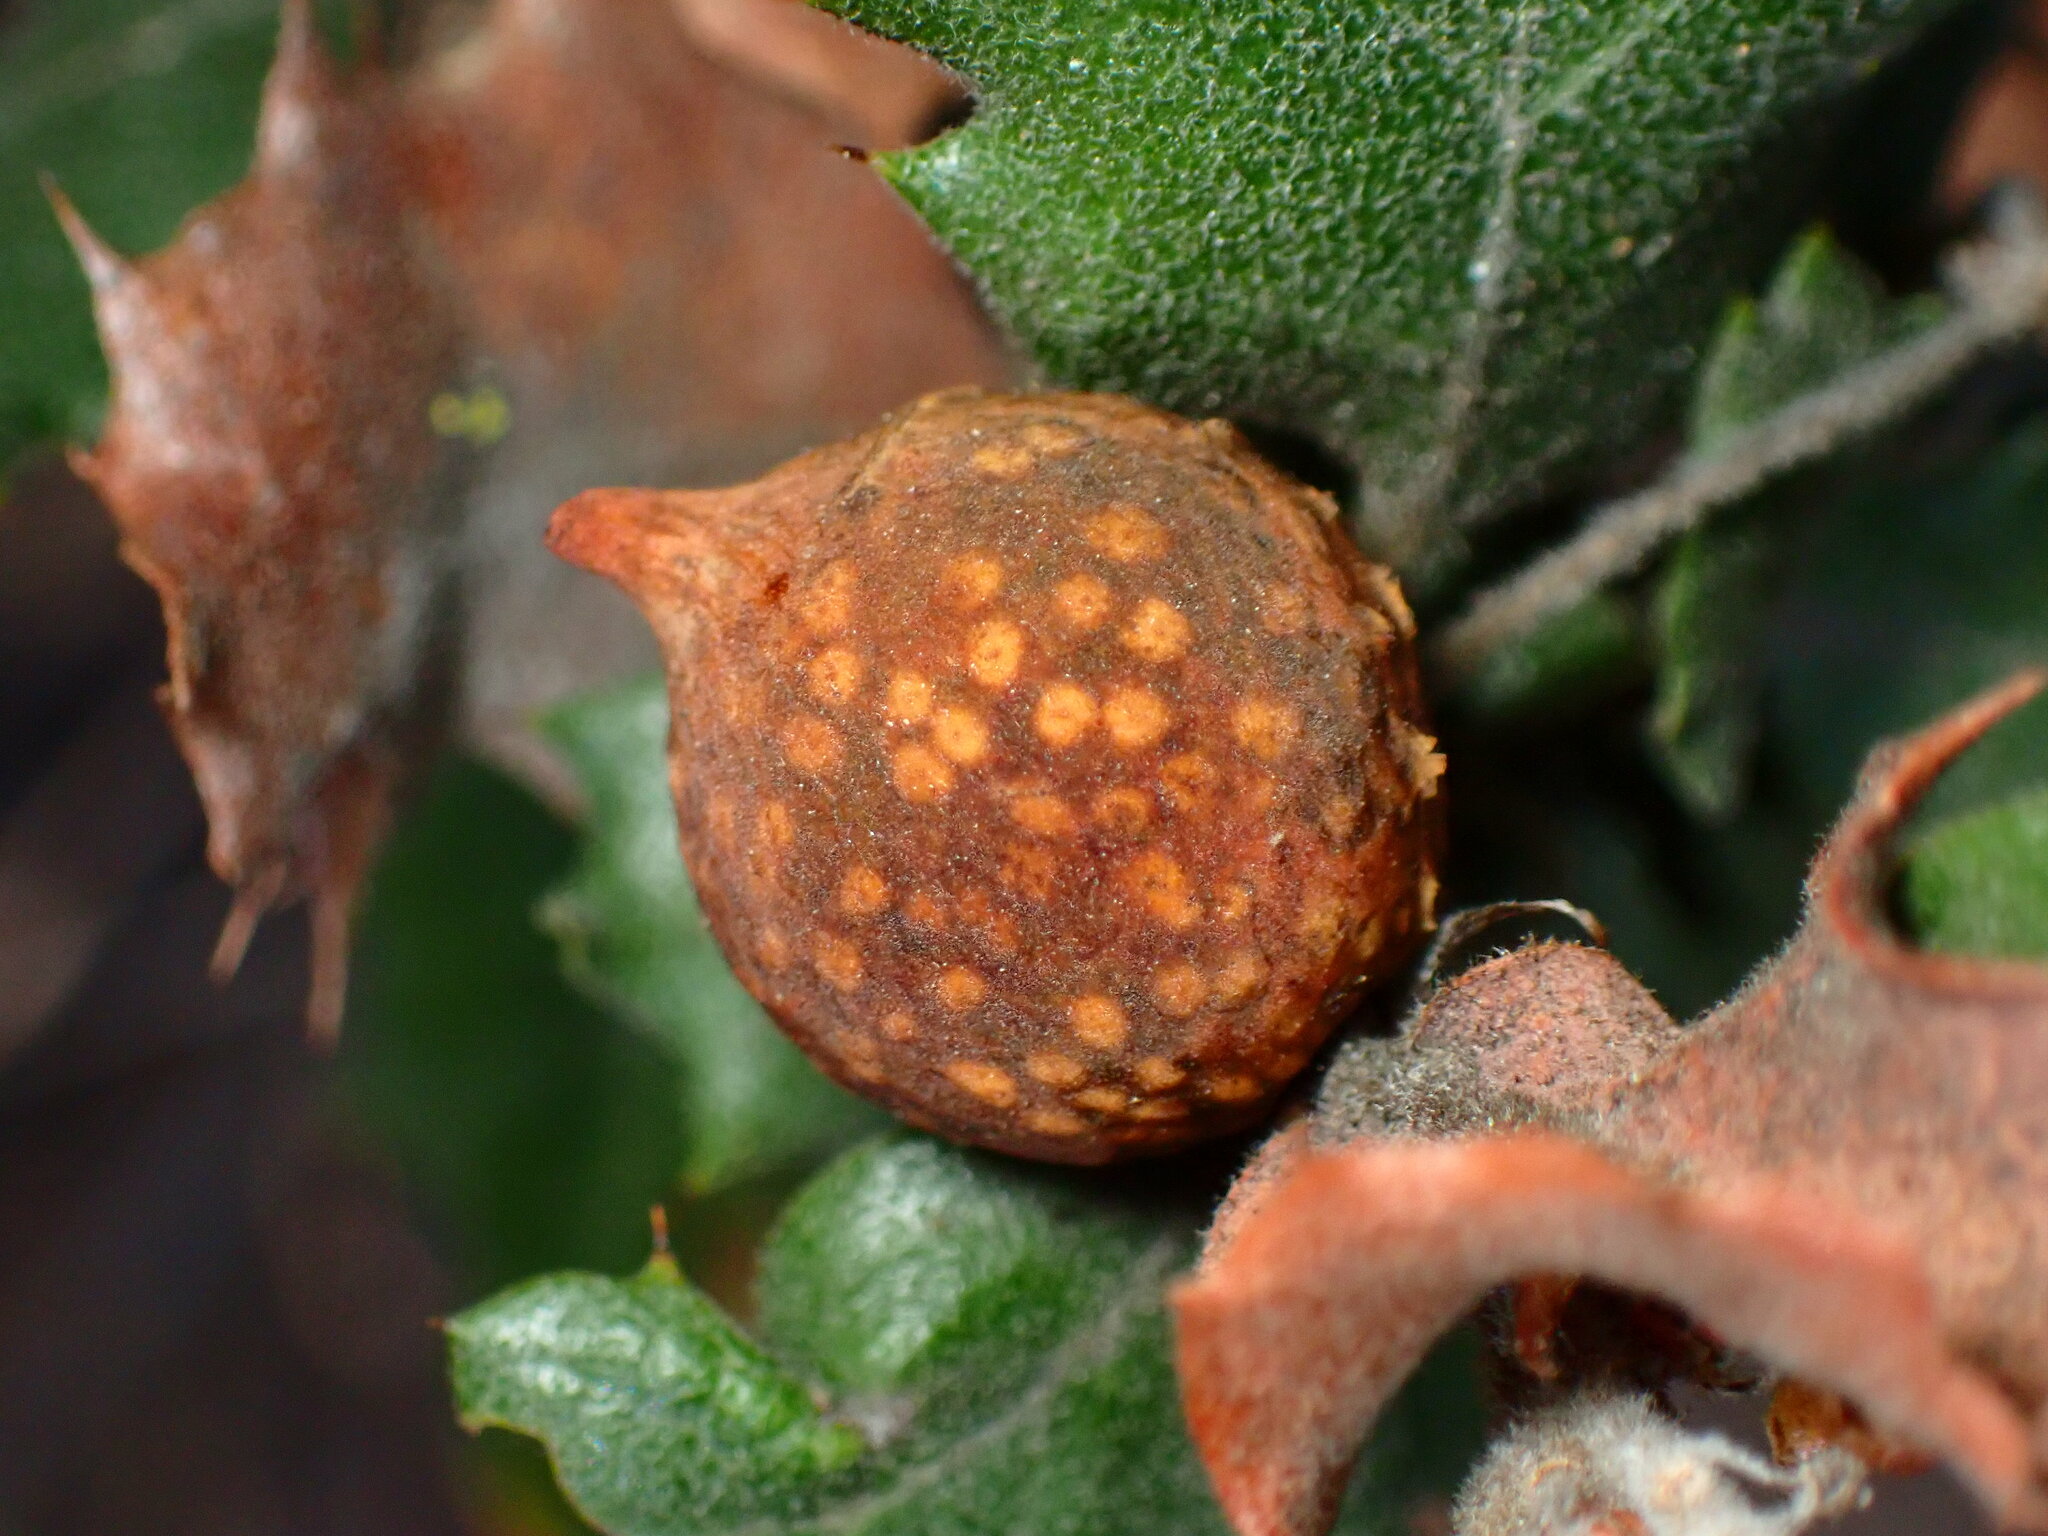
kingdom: Animalia
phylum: Arthropoda
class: Insecta
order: Hymenoptera
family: Cynipidae
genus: Burnettweldia
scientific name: Burnettweldia
